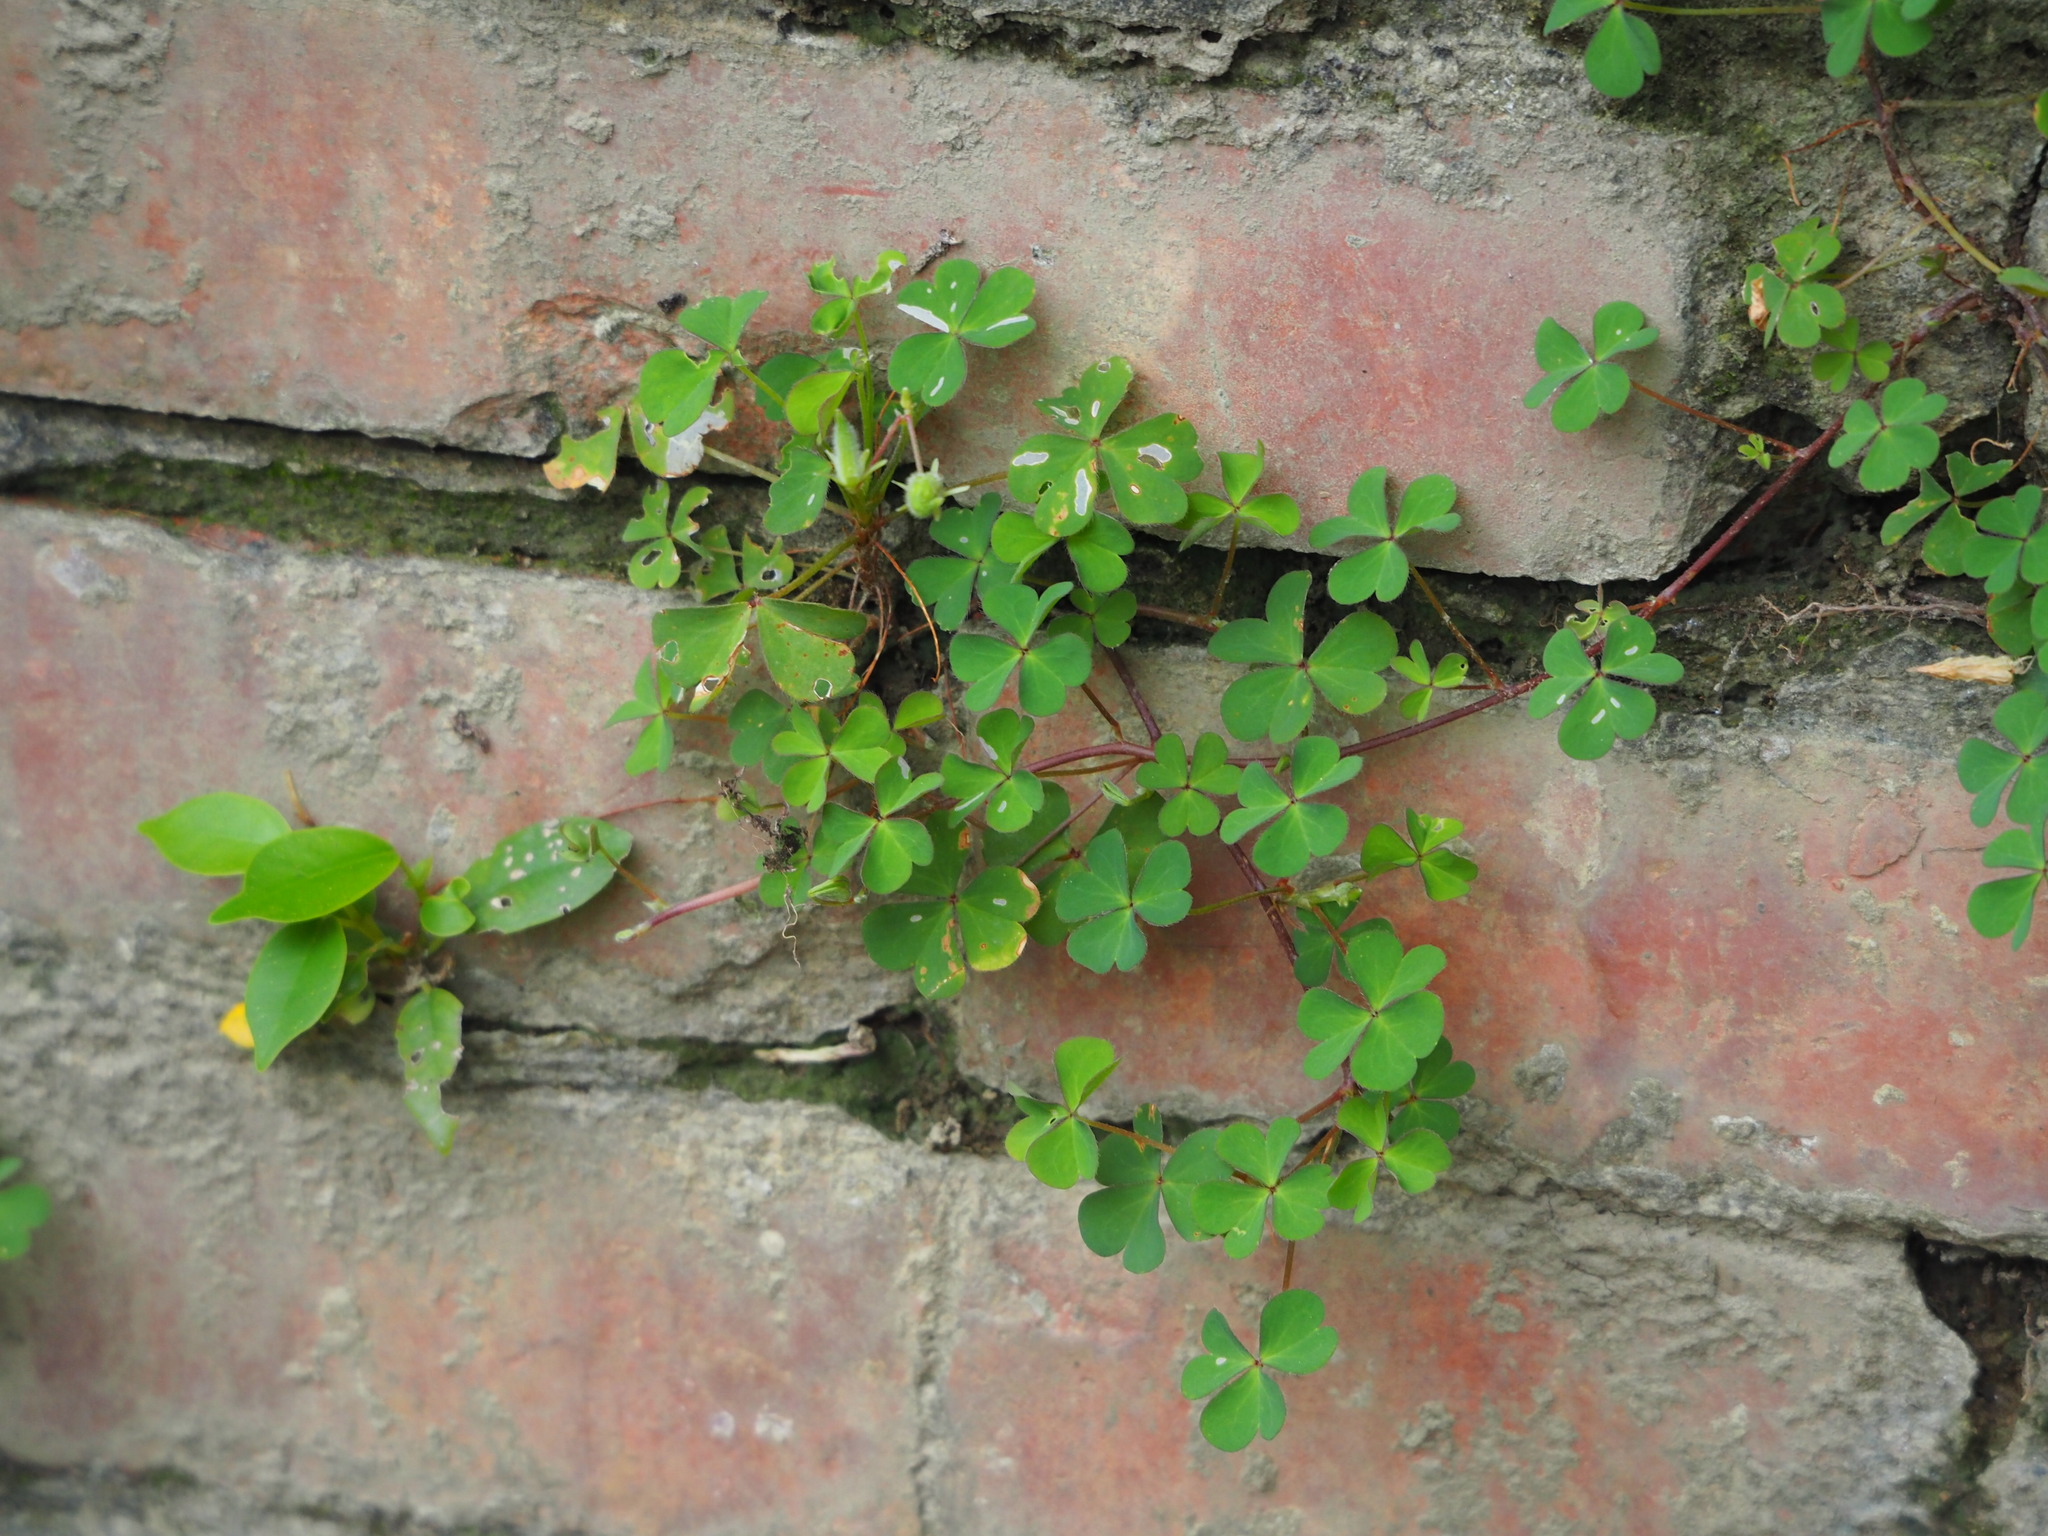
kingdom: Plantae
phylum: Tracheophyta
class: Magnoliopsida
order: Oxalidales
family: Oxalidaceae
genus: Oxalis
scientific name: Oxalis corniculata
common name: Procumbent yellow-sorrel
